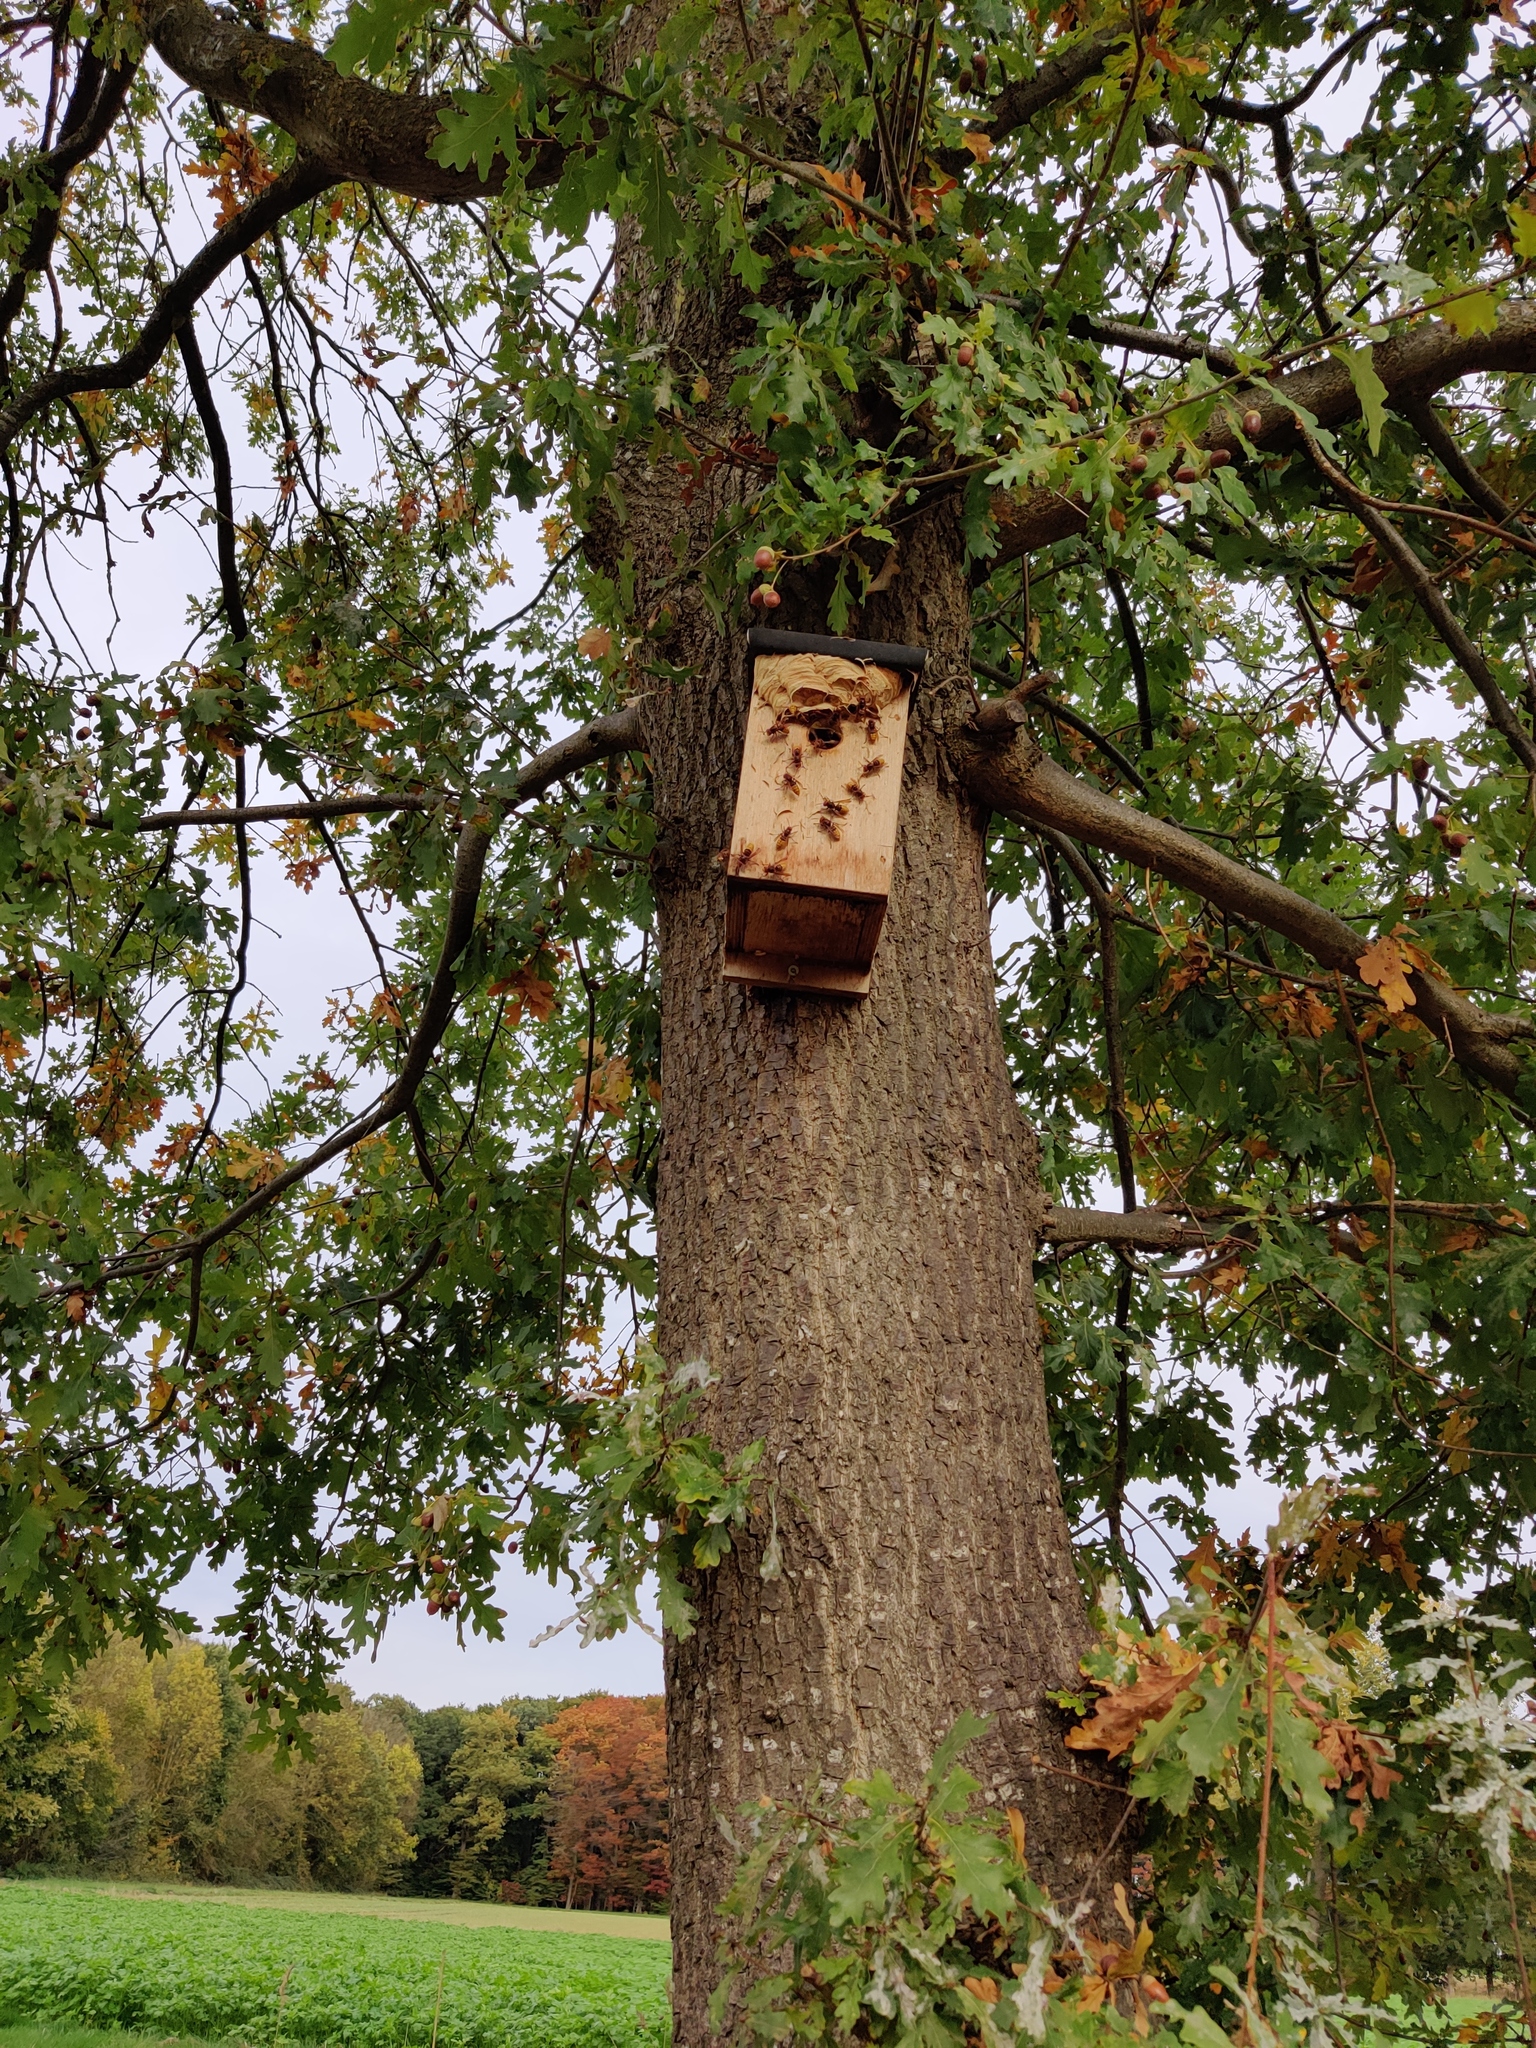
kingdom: Animalia
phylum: Arthropoda
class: Insecta
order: Hymenoptera
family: Vespidae
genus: Vespa
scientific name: Vespa crabro
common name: Hornet
